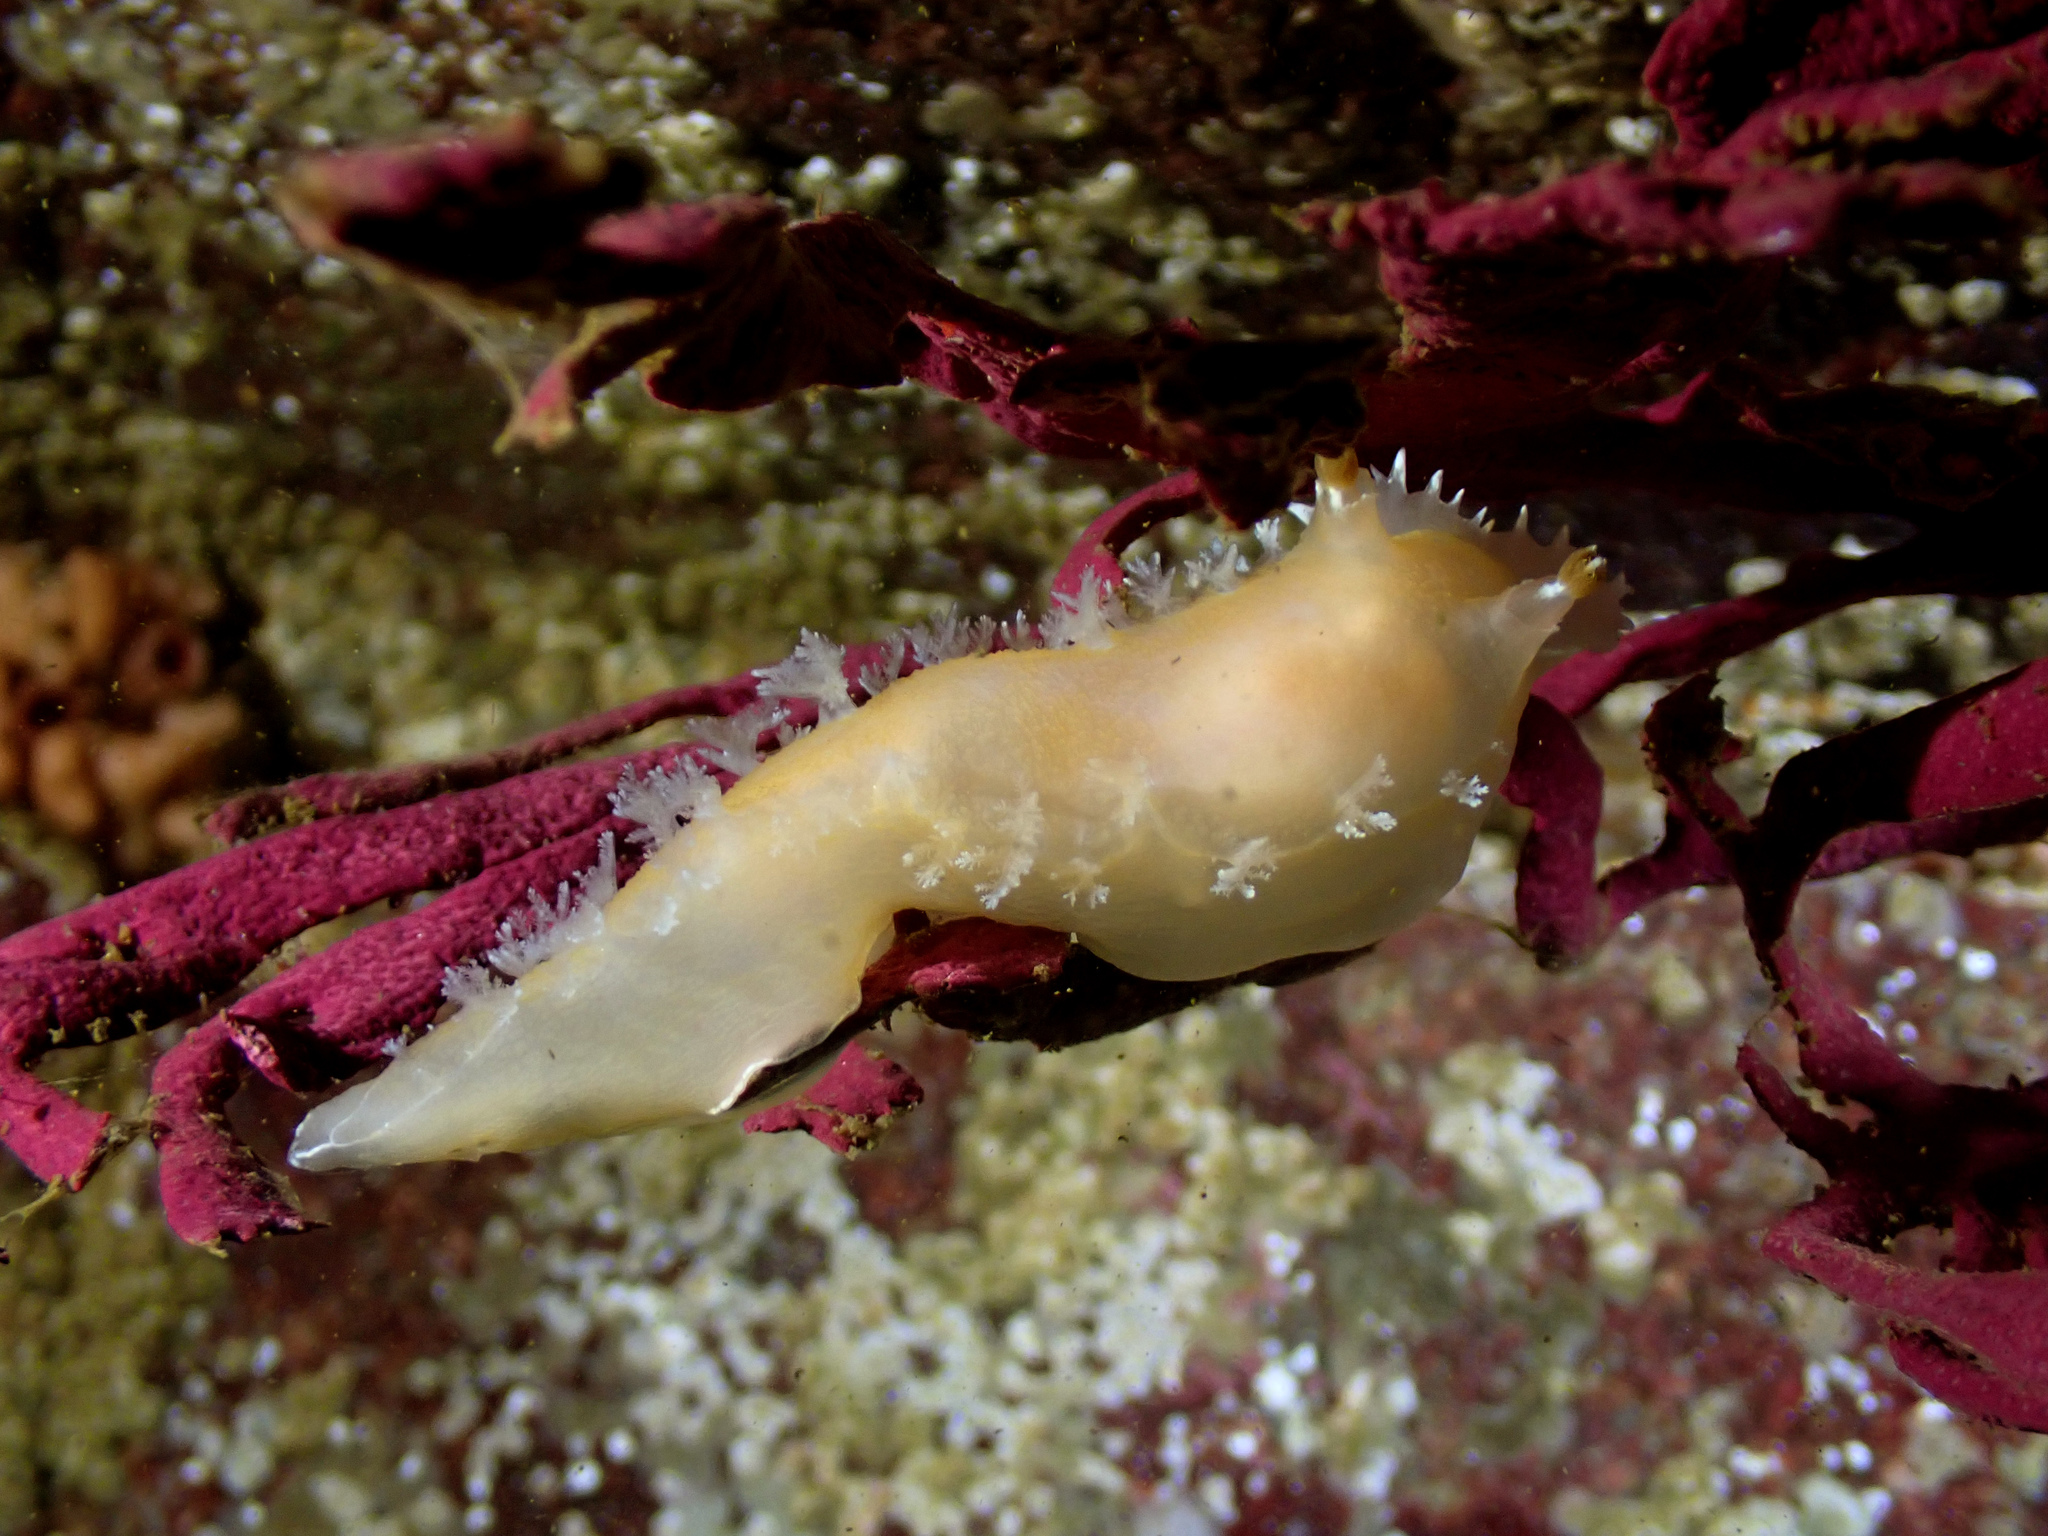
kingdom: Animalia
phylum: Mollusca
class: Gastropoda
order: Nudibranchia
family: Tritoniidae
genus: Tritonia
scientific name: Tritonia odhneri
